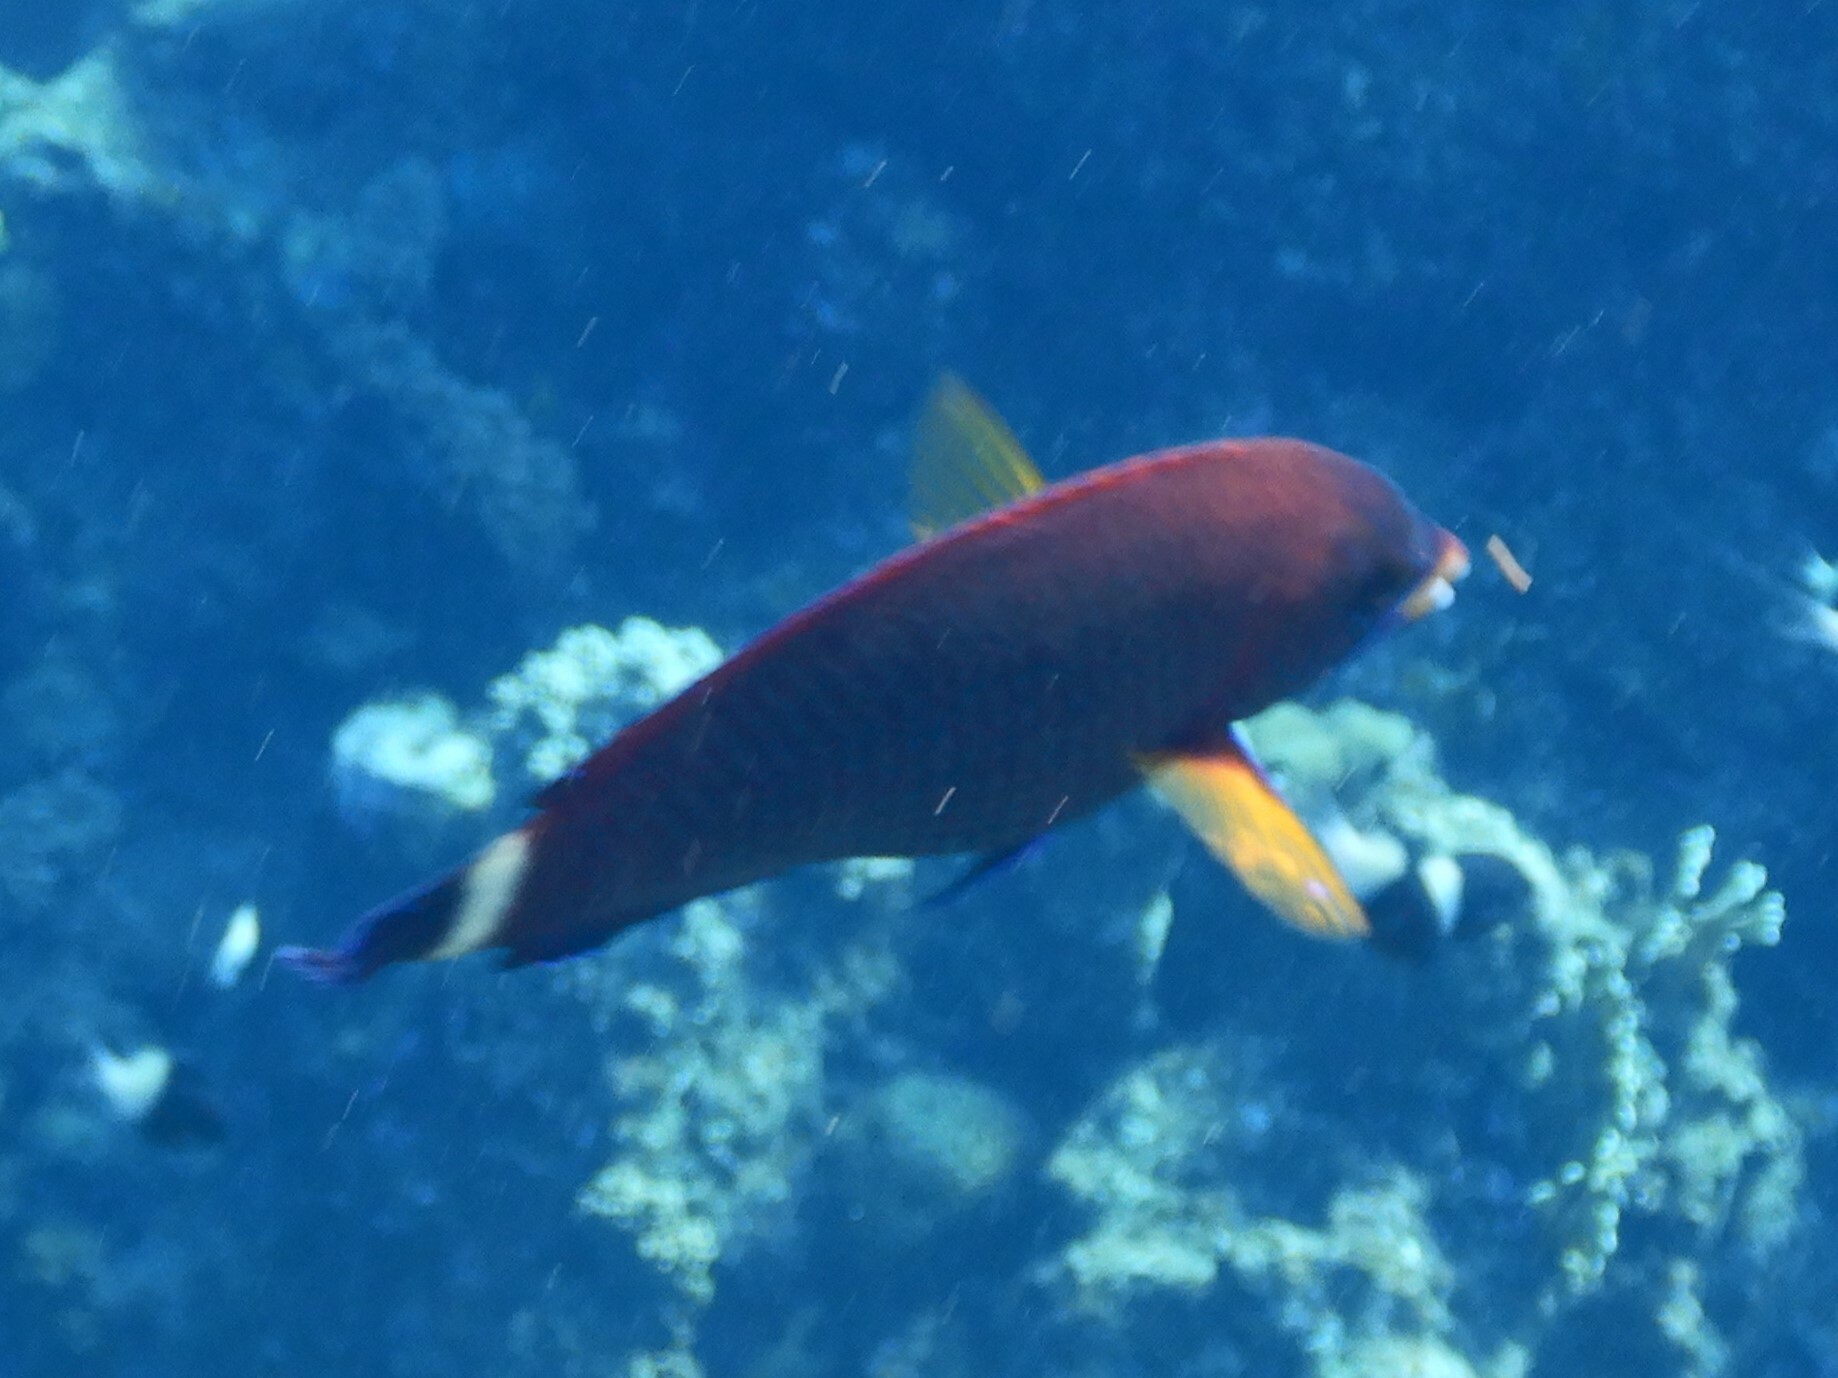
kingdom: Animalia
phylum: Chordata
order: Perciformes
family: Labridae
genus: Pseudodax
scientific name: Pseudodax moluccanus
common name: Chiseltooth wrasse
